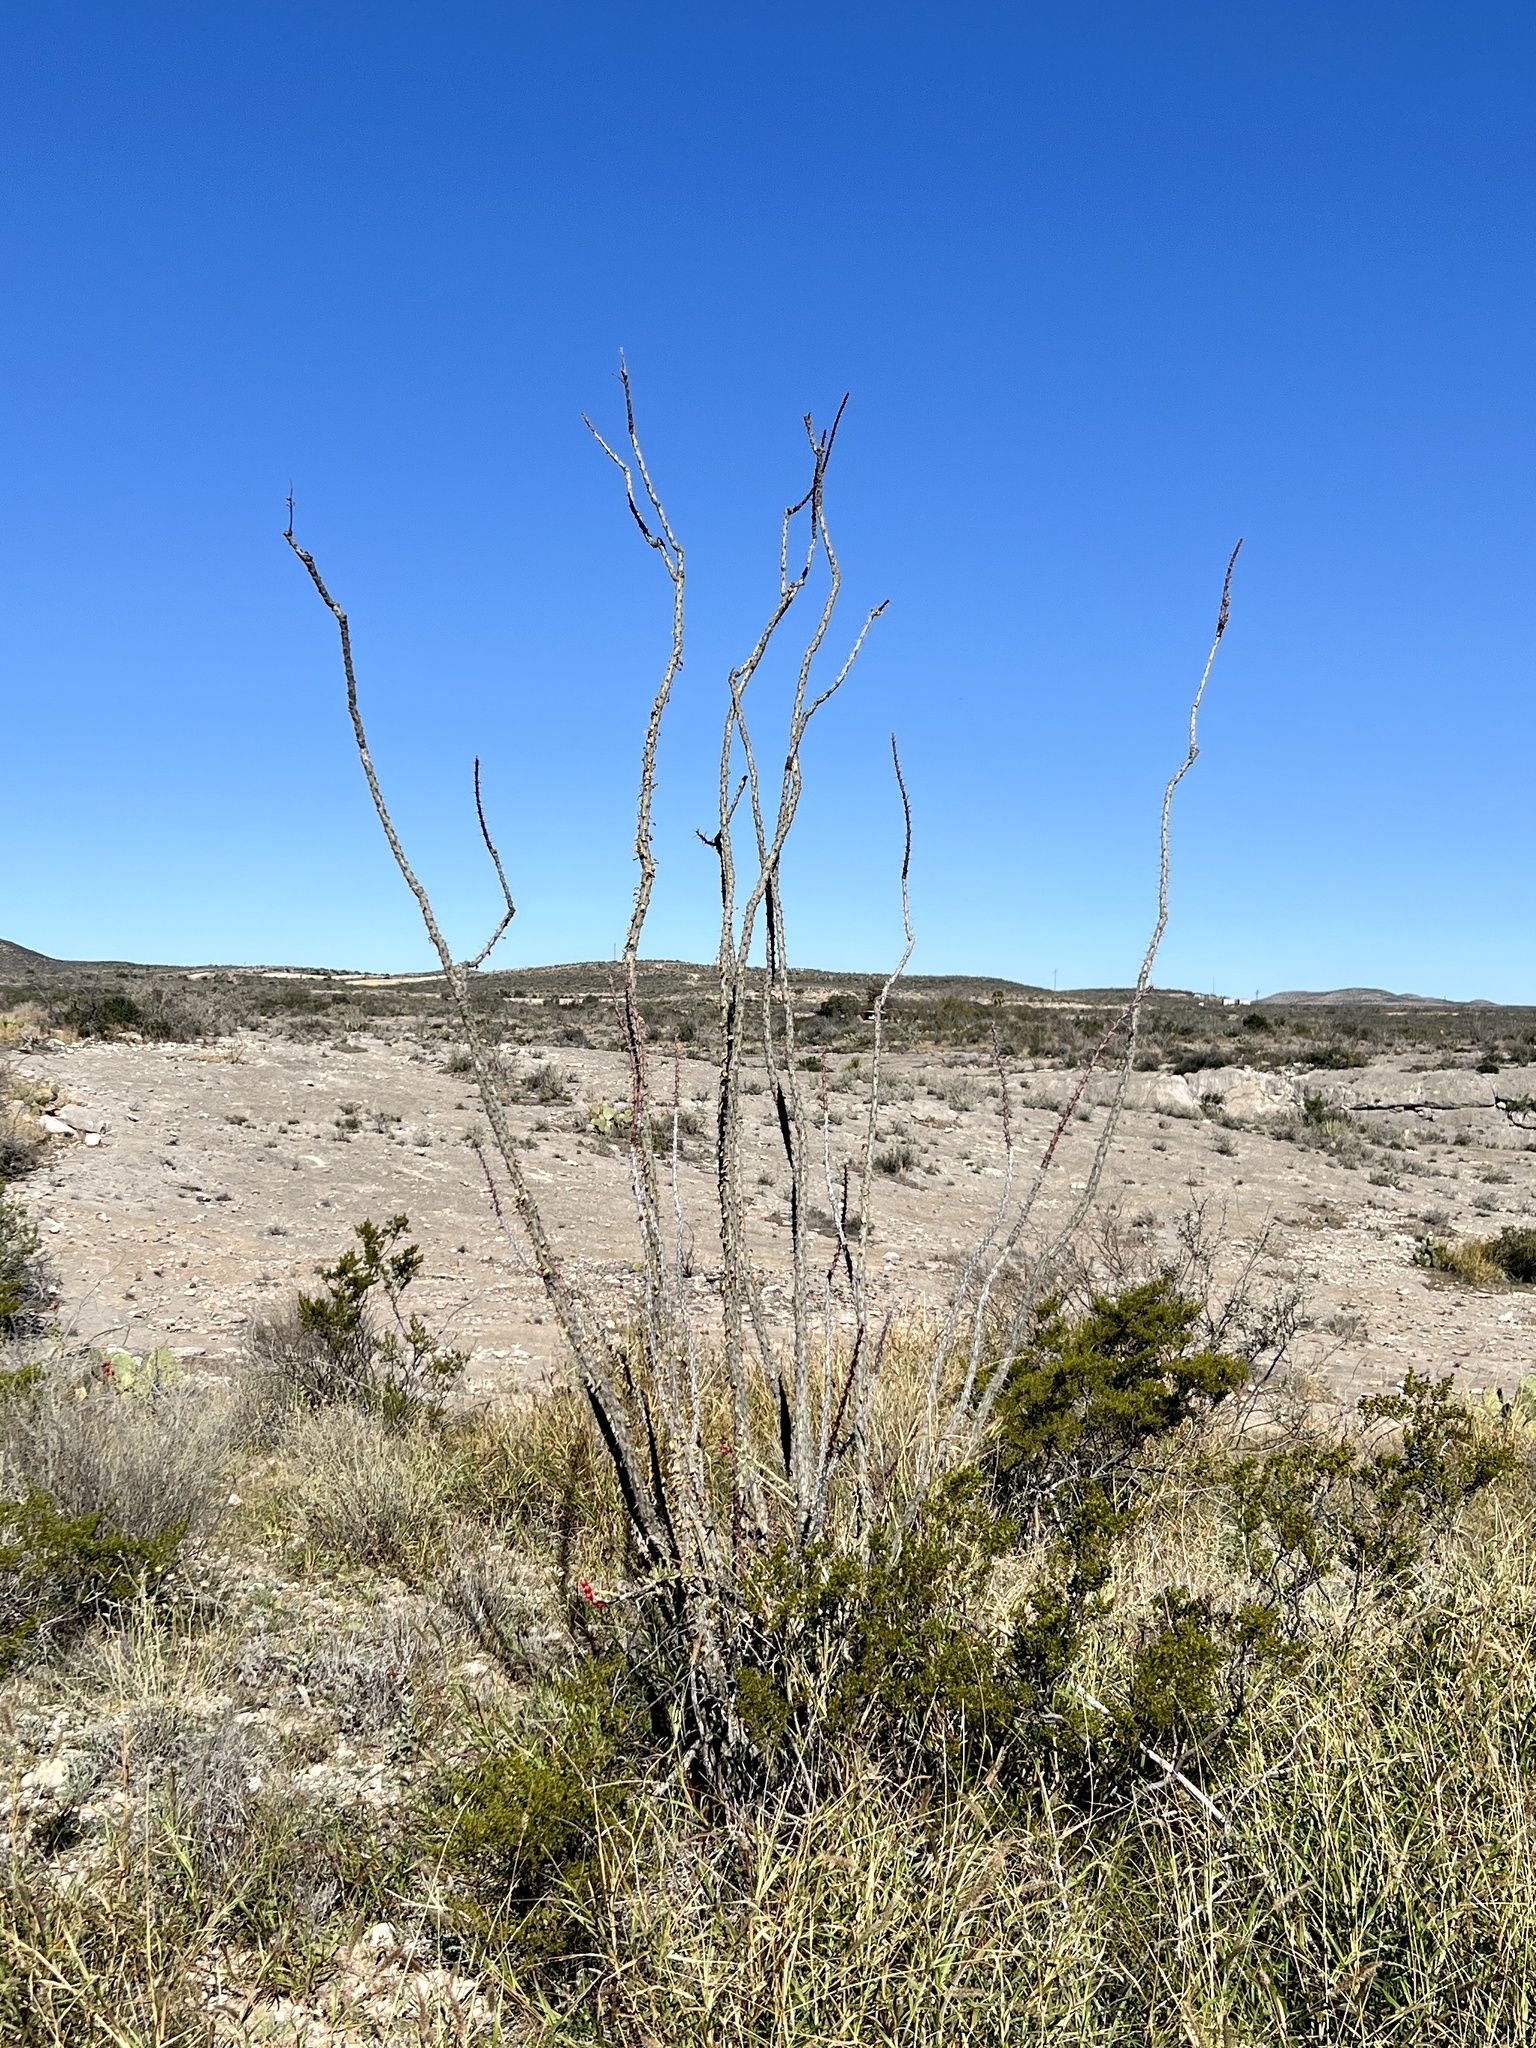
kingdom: Plantae
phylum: Tracheophyta
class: Magnoliopsida
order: Ericales
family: Fouquieriaceae
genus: Fouquieria
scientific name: Fouquieria splendens
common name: Vine-cactus
